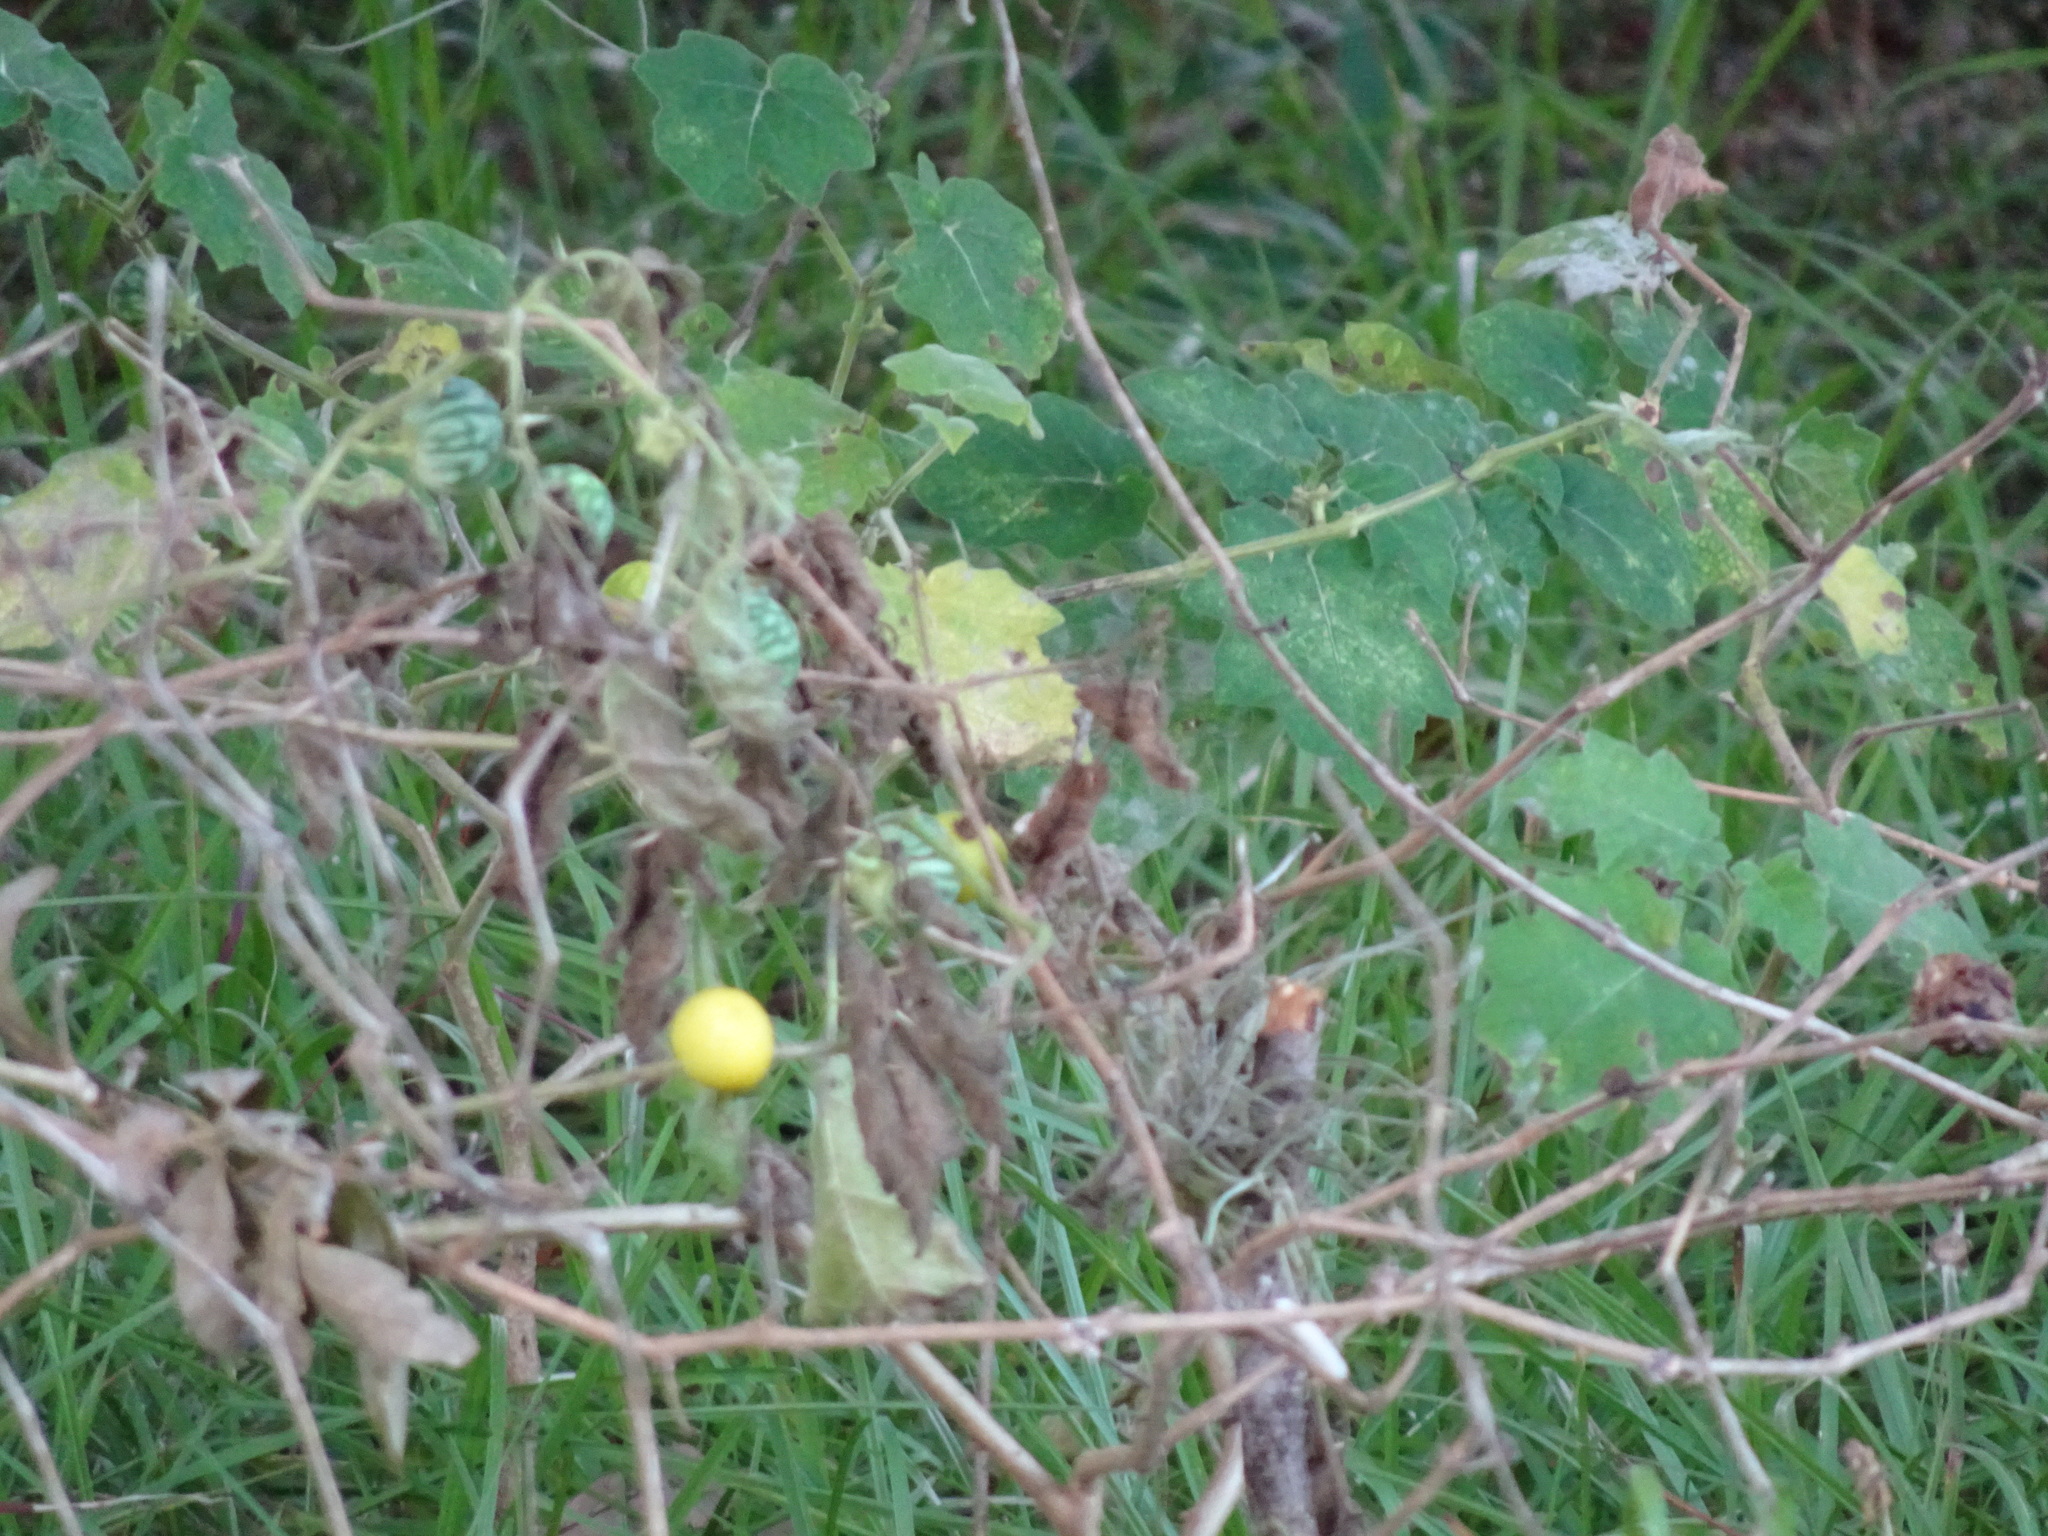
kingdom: Plantae
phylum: Tracheophyta
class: Magnoliopsida
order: Solanales
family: Solanaceae
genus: Solanum
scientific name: Solanum viarum
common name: Tropical soda apple
